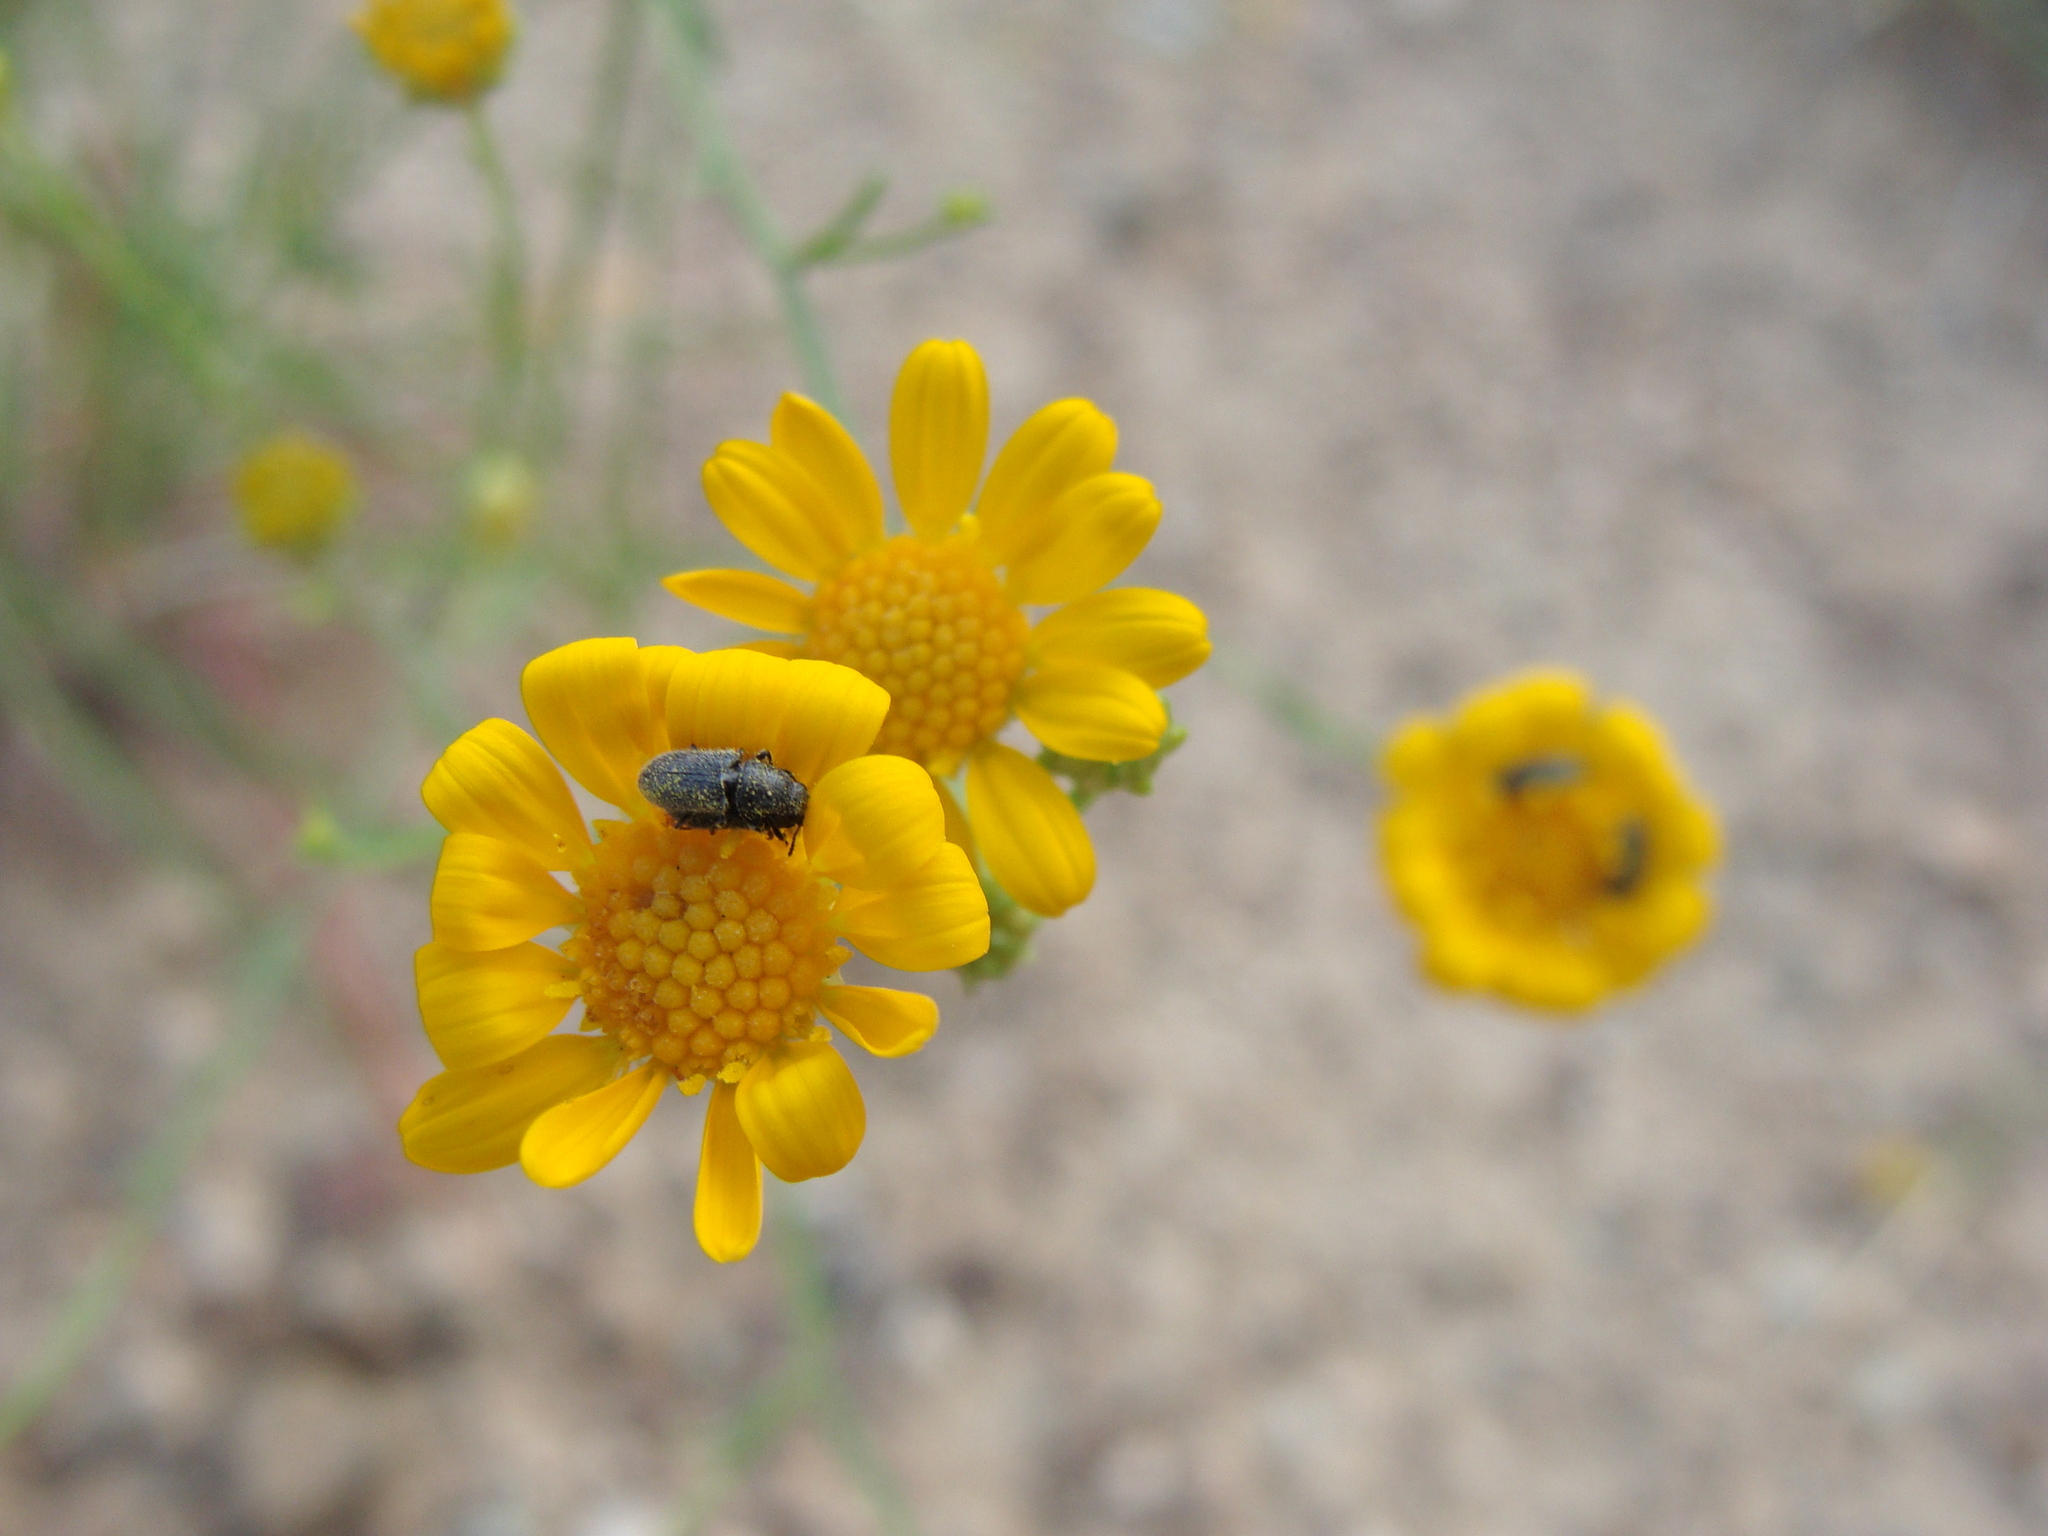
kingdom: Plantae
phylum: Tracheophyta
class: Magnoliopsida
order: Asterales
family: Asteraceae
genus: Gutierrezia
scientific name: Gutierrezia wrightii
